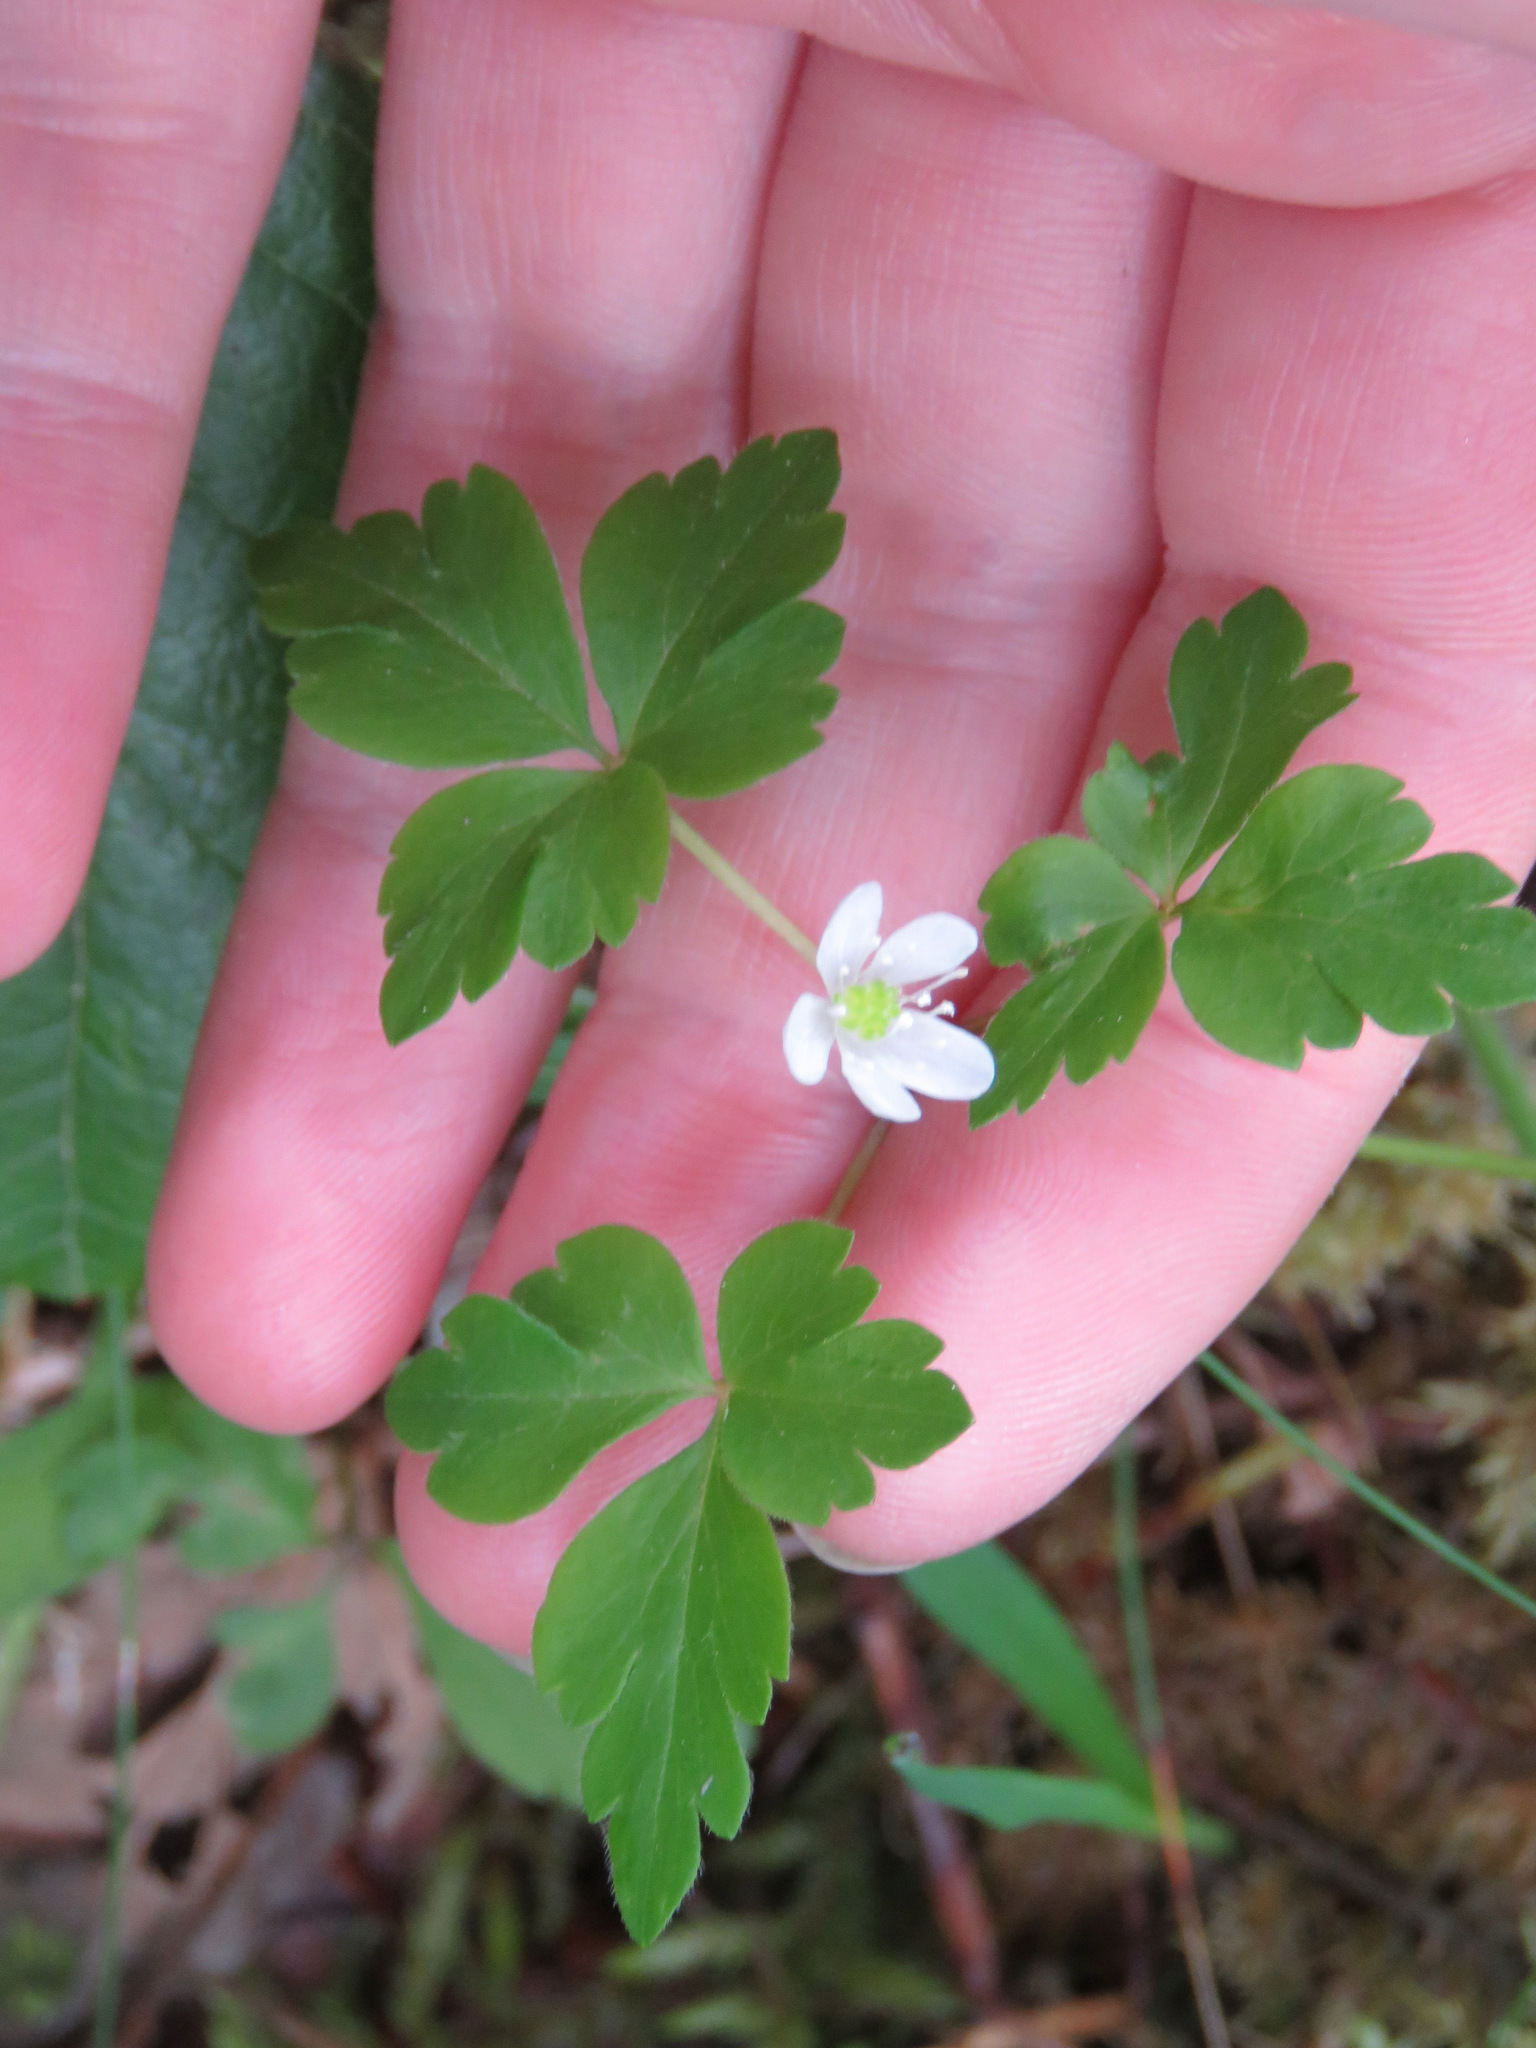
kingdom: Plantae
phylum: Tracheophyta
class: Magnoliopsida
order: Ranunculales
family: Ranunculaceae
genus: Anemone
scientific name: Anemone
